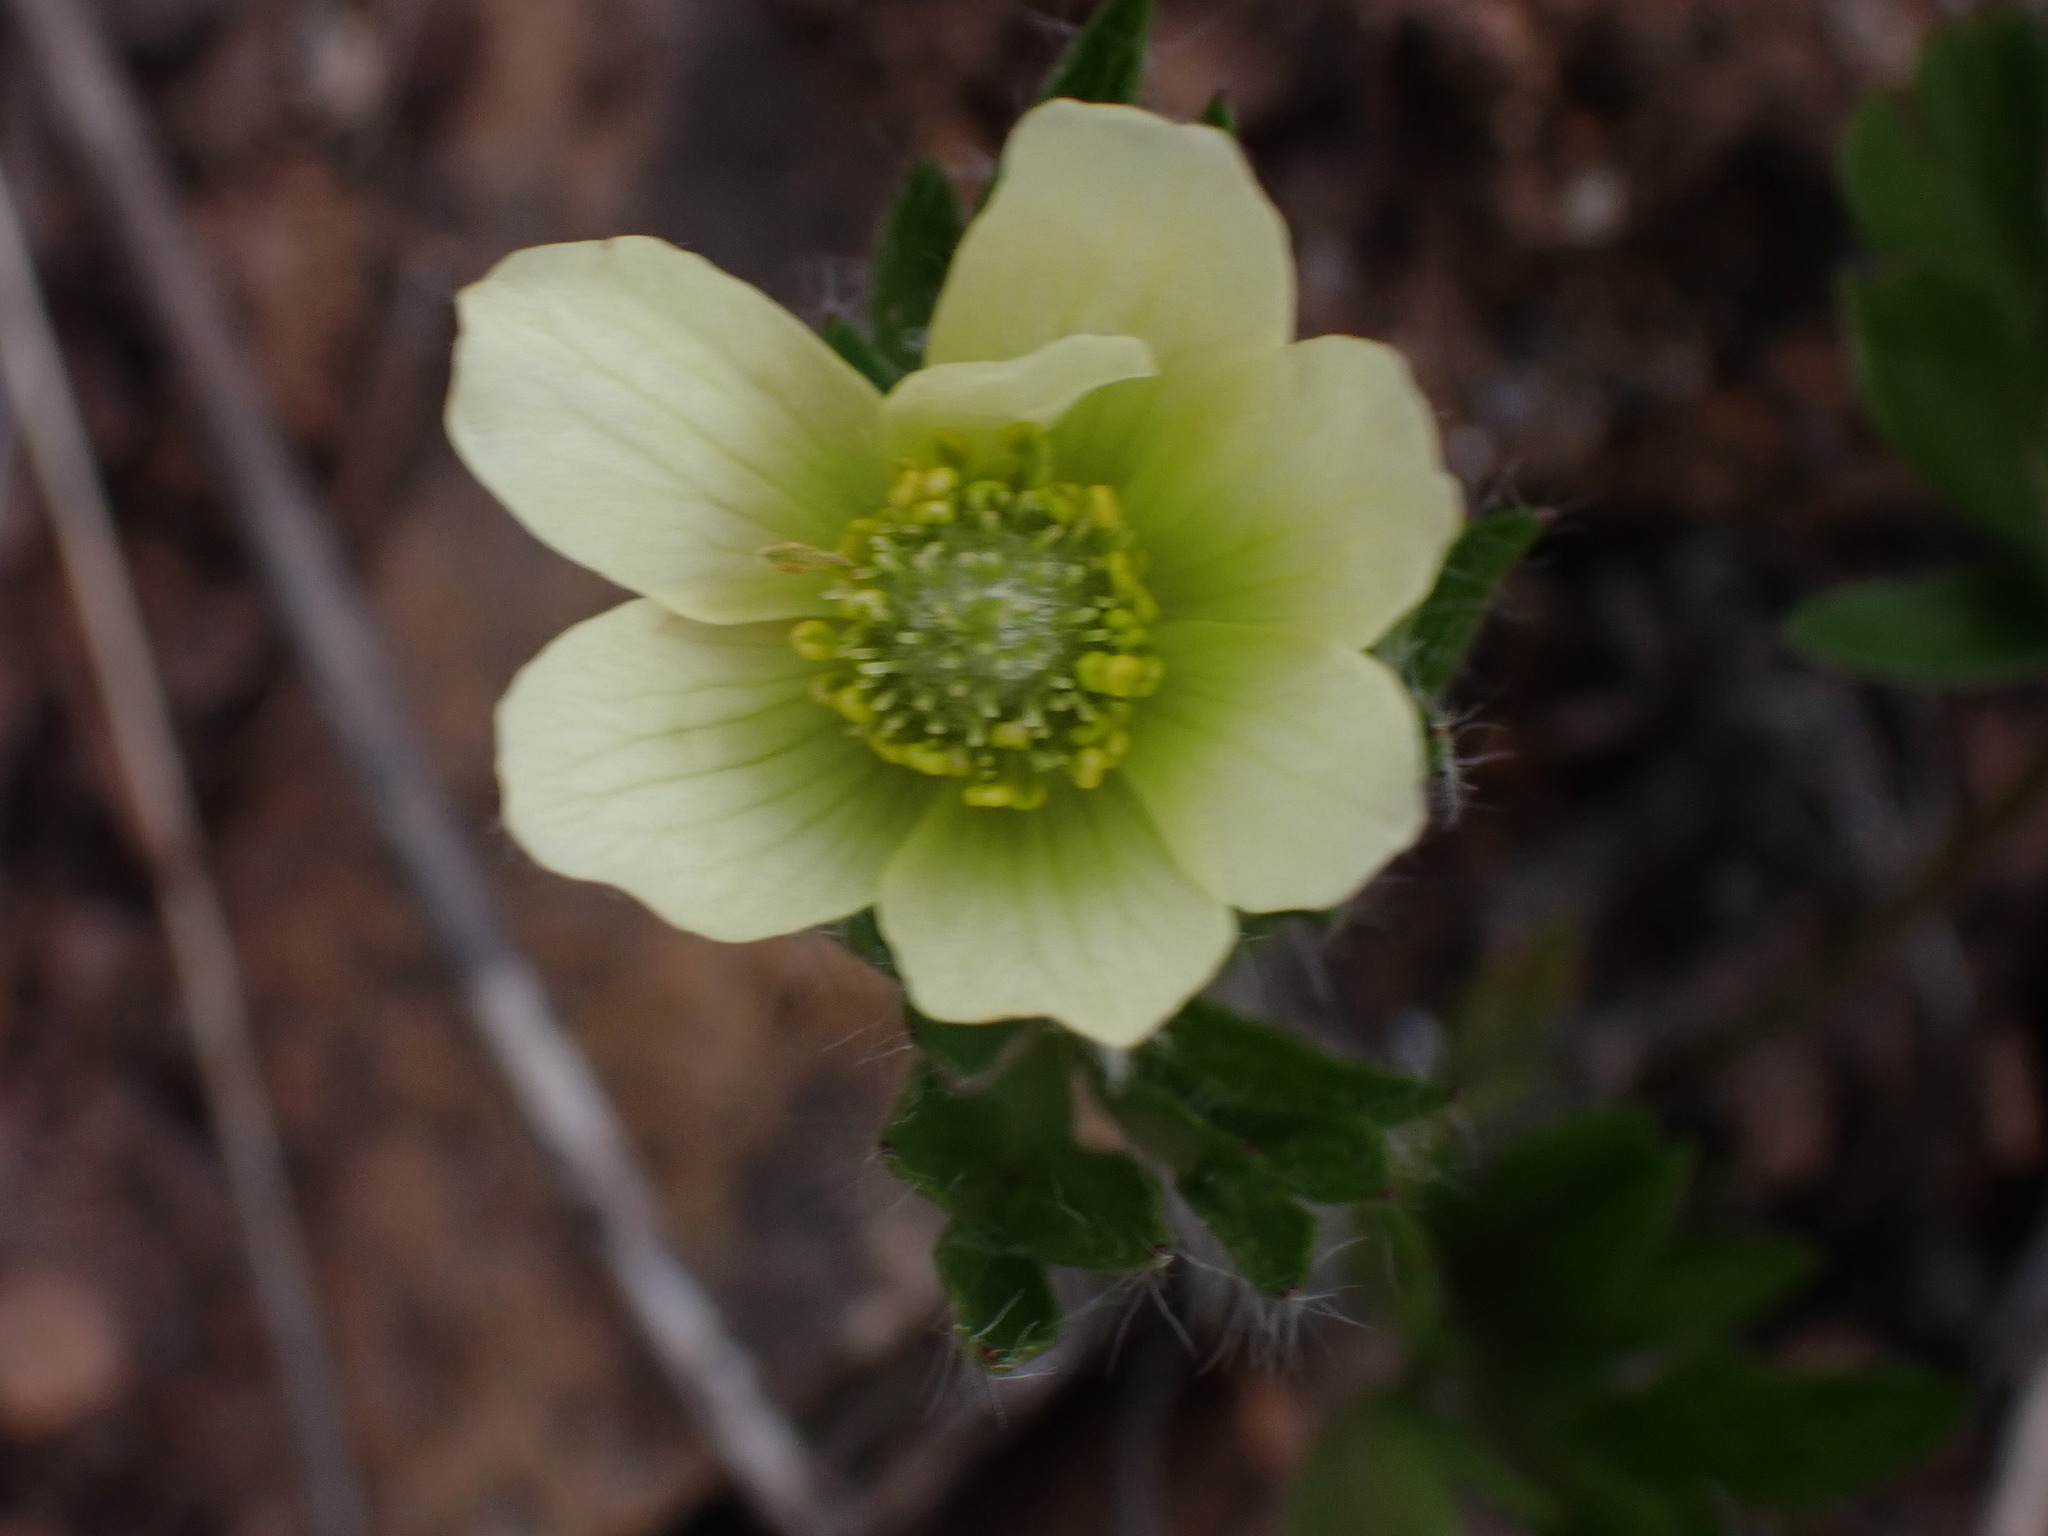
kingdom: Plantae
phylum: Tracheophyta
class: Magnoliopsida
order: Ranunculales
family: Ranunculaceae
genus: Anemone
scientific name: Anemone multifida
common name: Bird's-foot anemone
